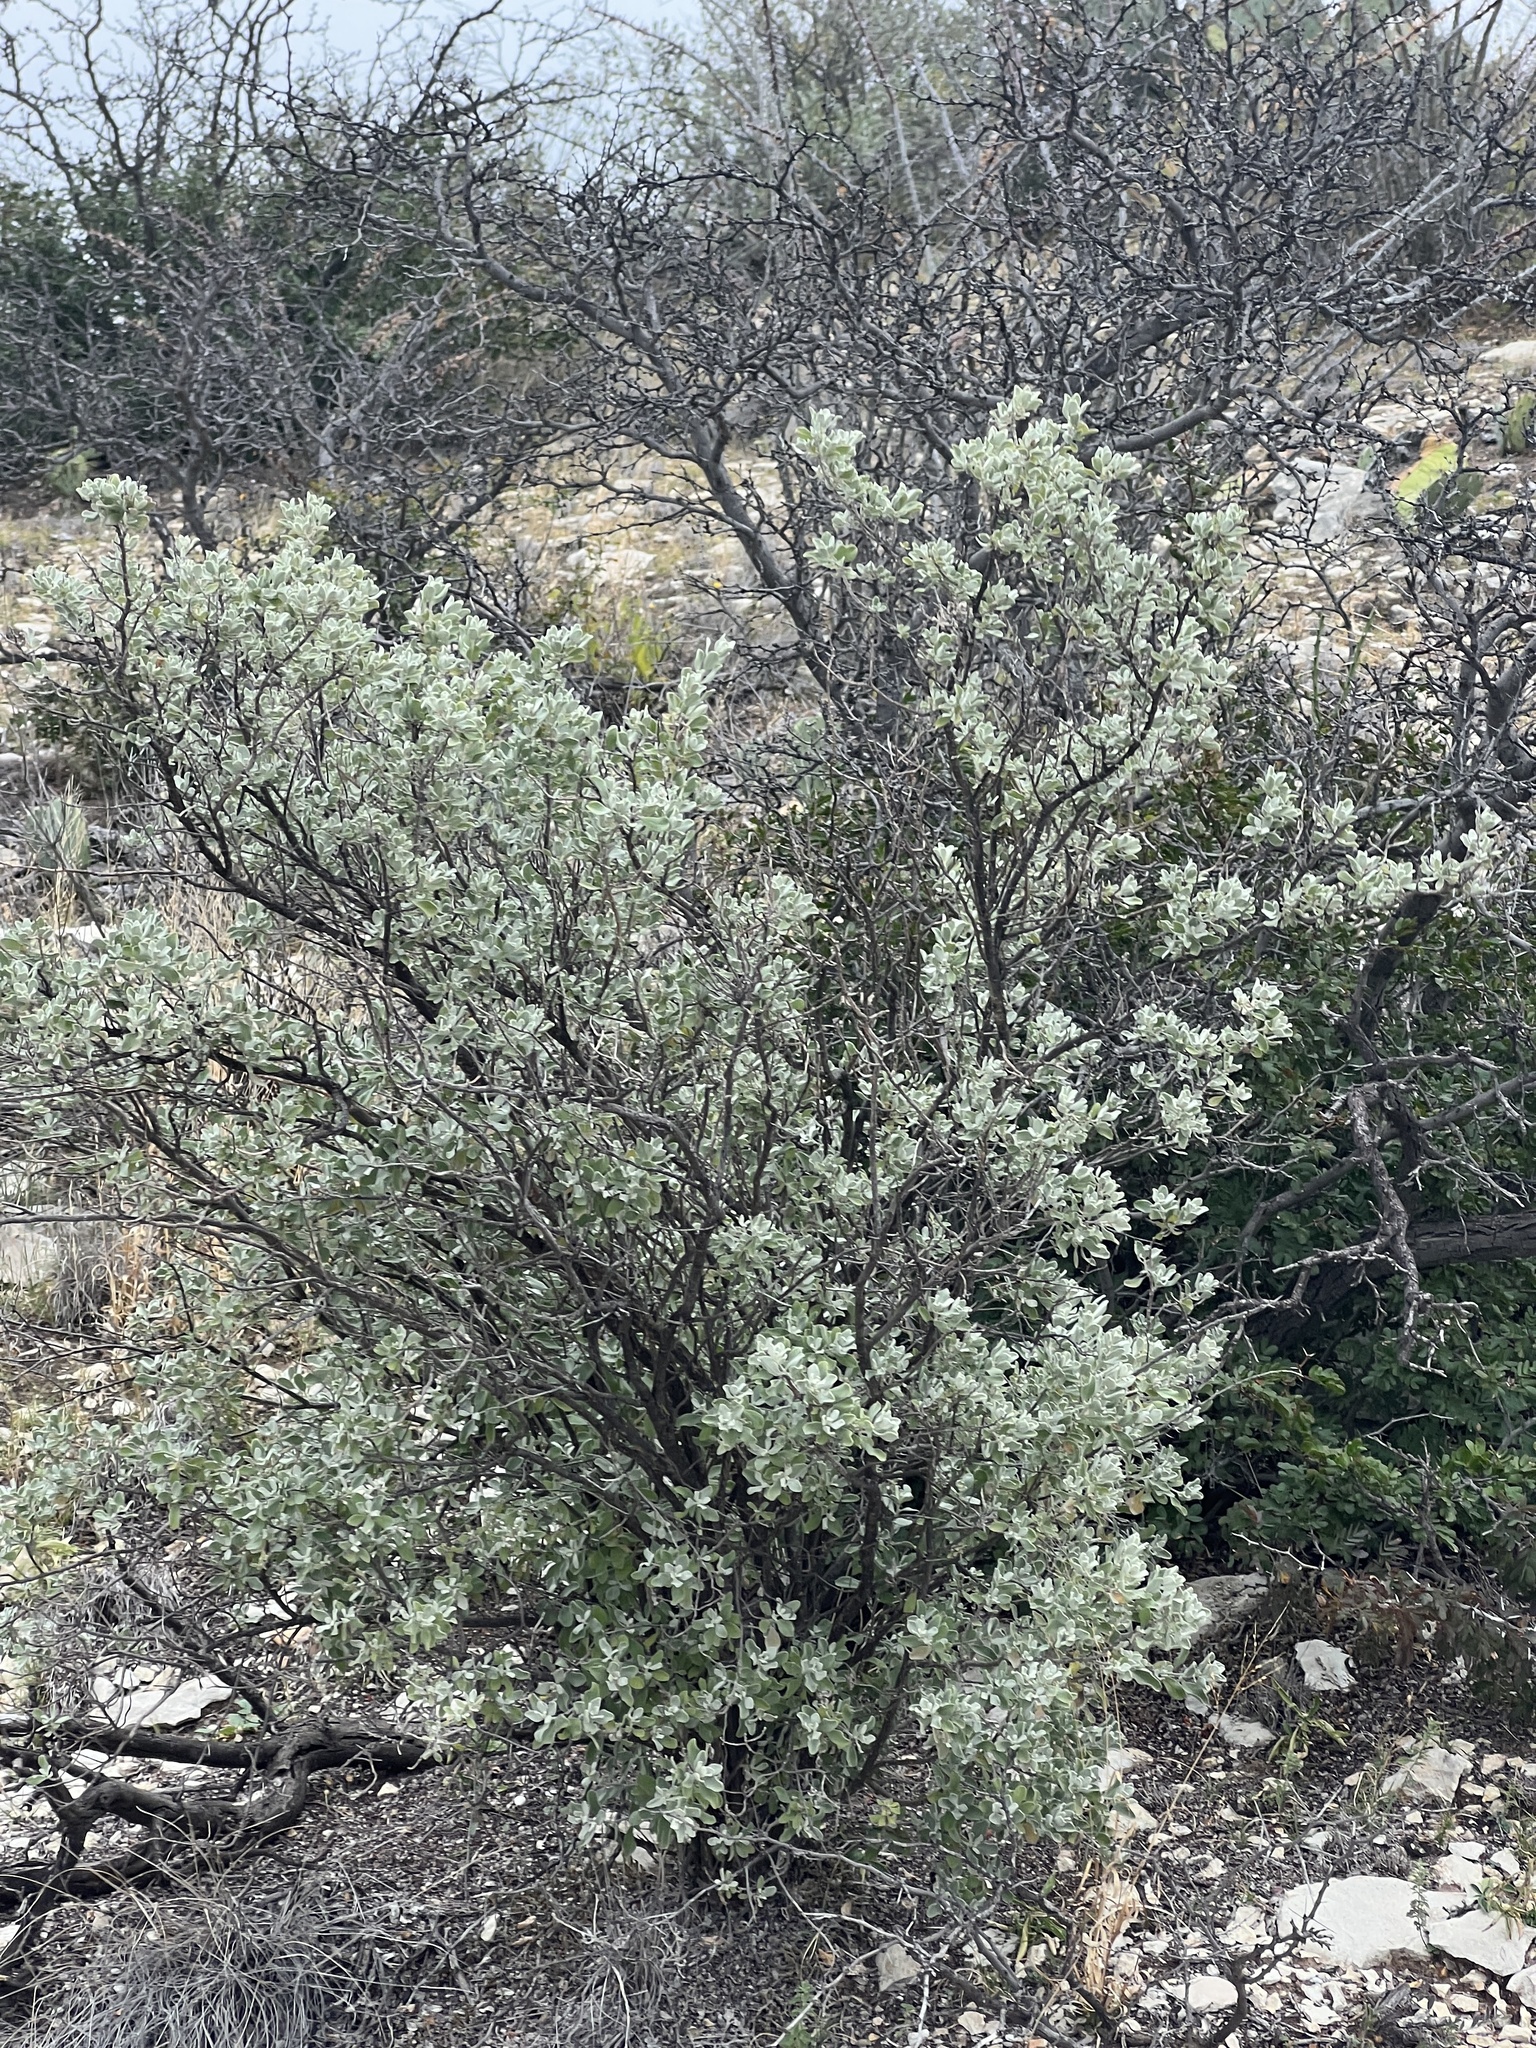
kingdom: Plantae
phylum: Tracheophyta
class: Magnoliopsida
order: Lamiales
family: Scrophulariaceae
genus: Leucophyllum
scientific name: Leucophyllum frutescens
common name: Texas silverleaf
